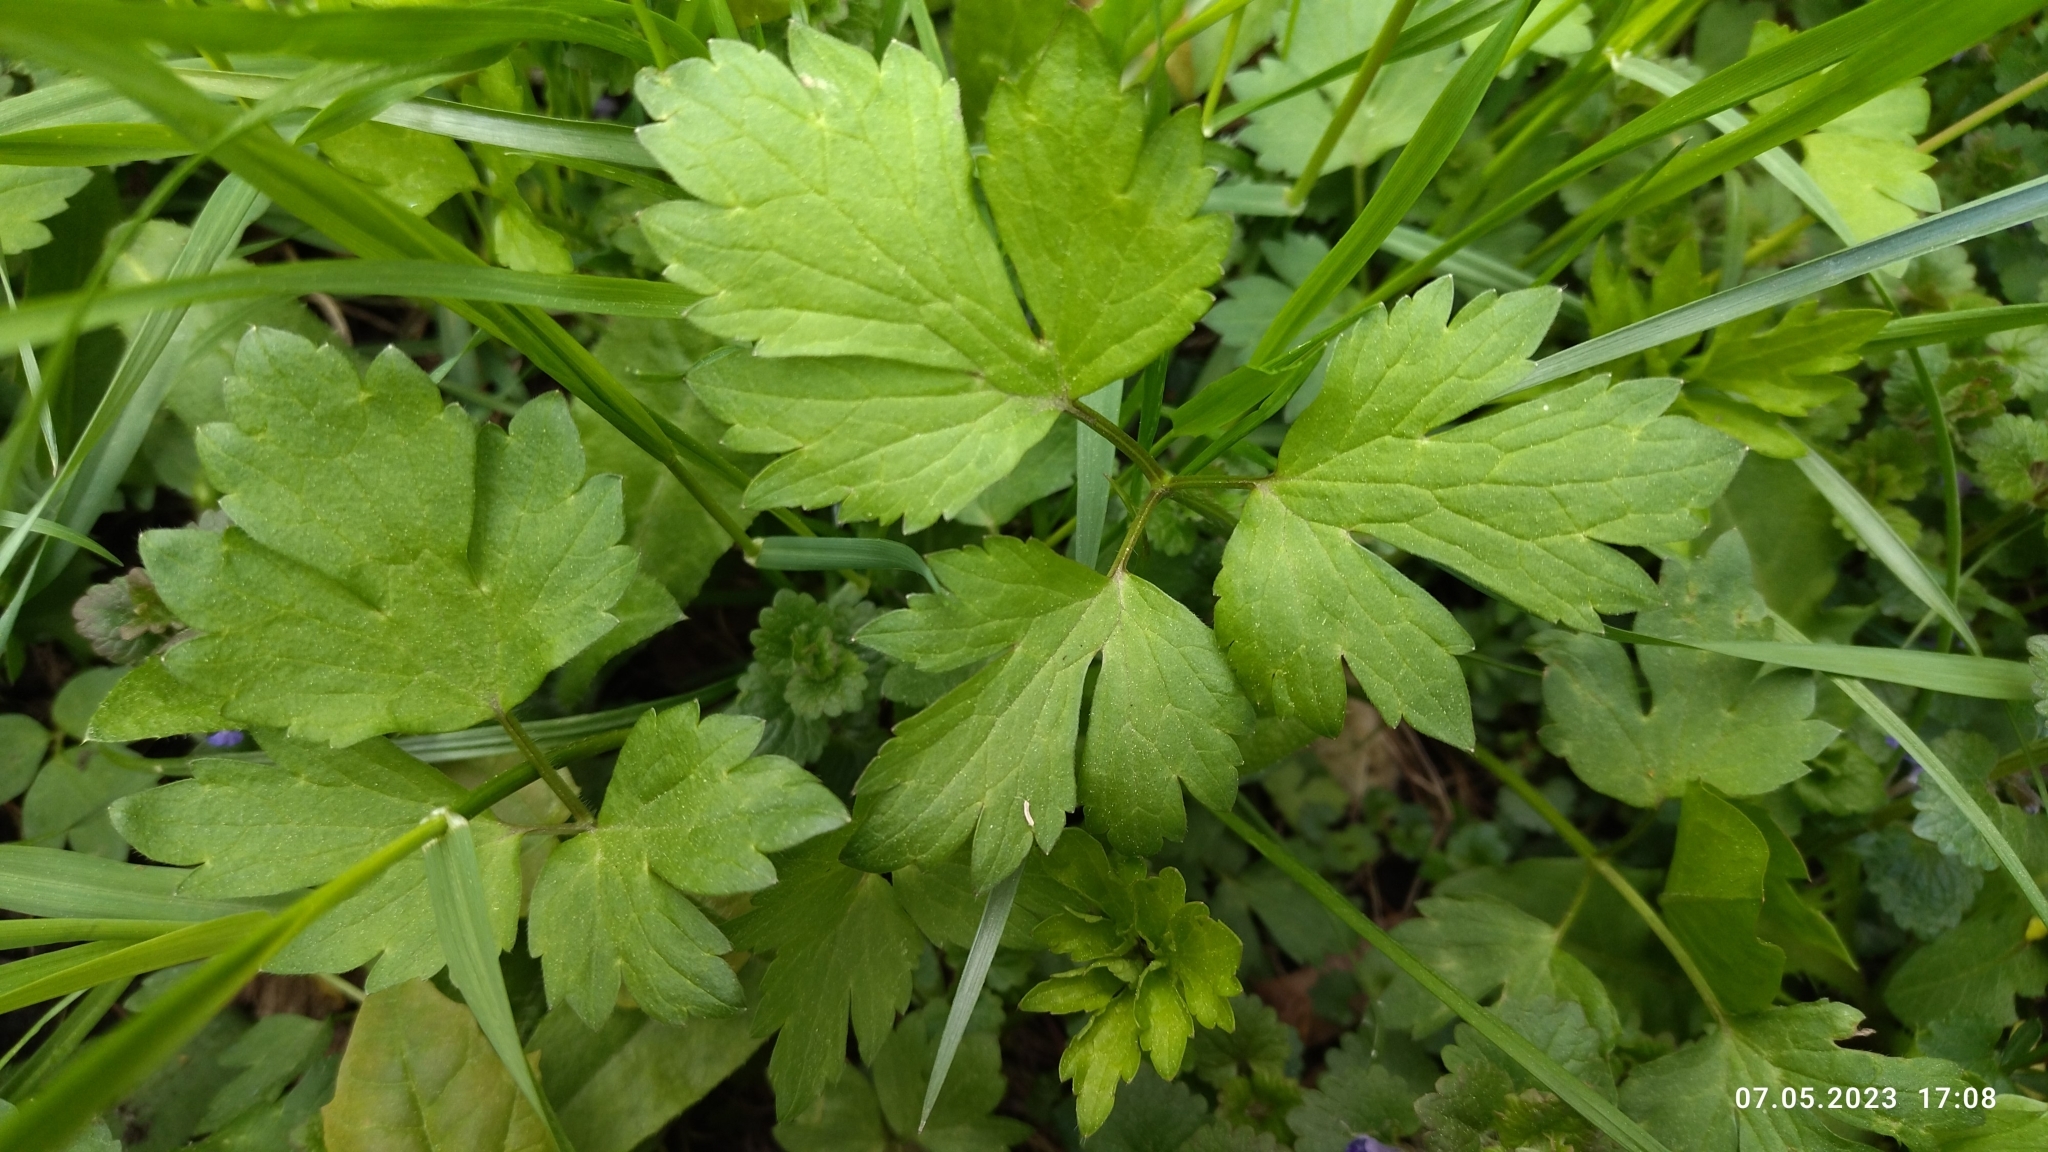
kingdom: Plantae
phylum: Tracheophyta
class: Magnoliopsida
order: Ranunculales
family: Ranunculaceae
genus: Ranunculus
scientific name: Ranunculus repens
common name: Creeping buttercup
